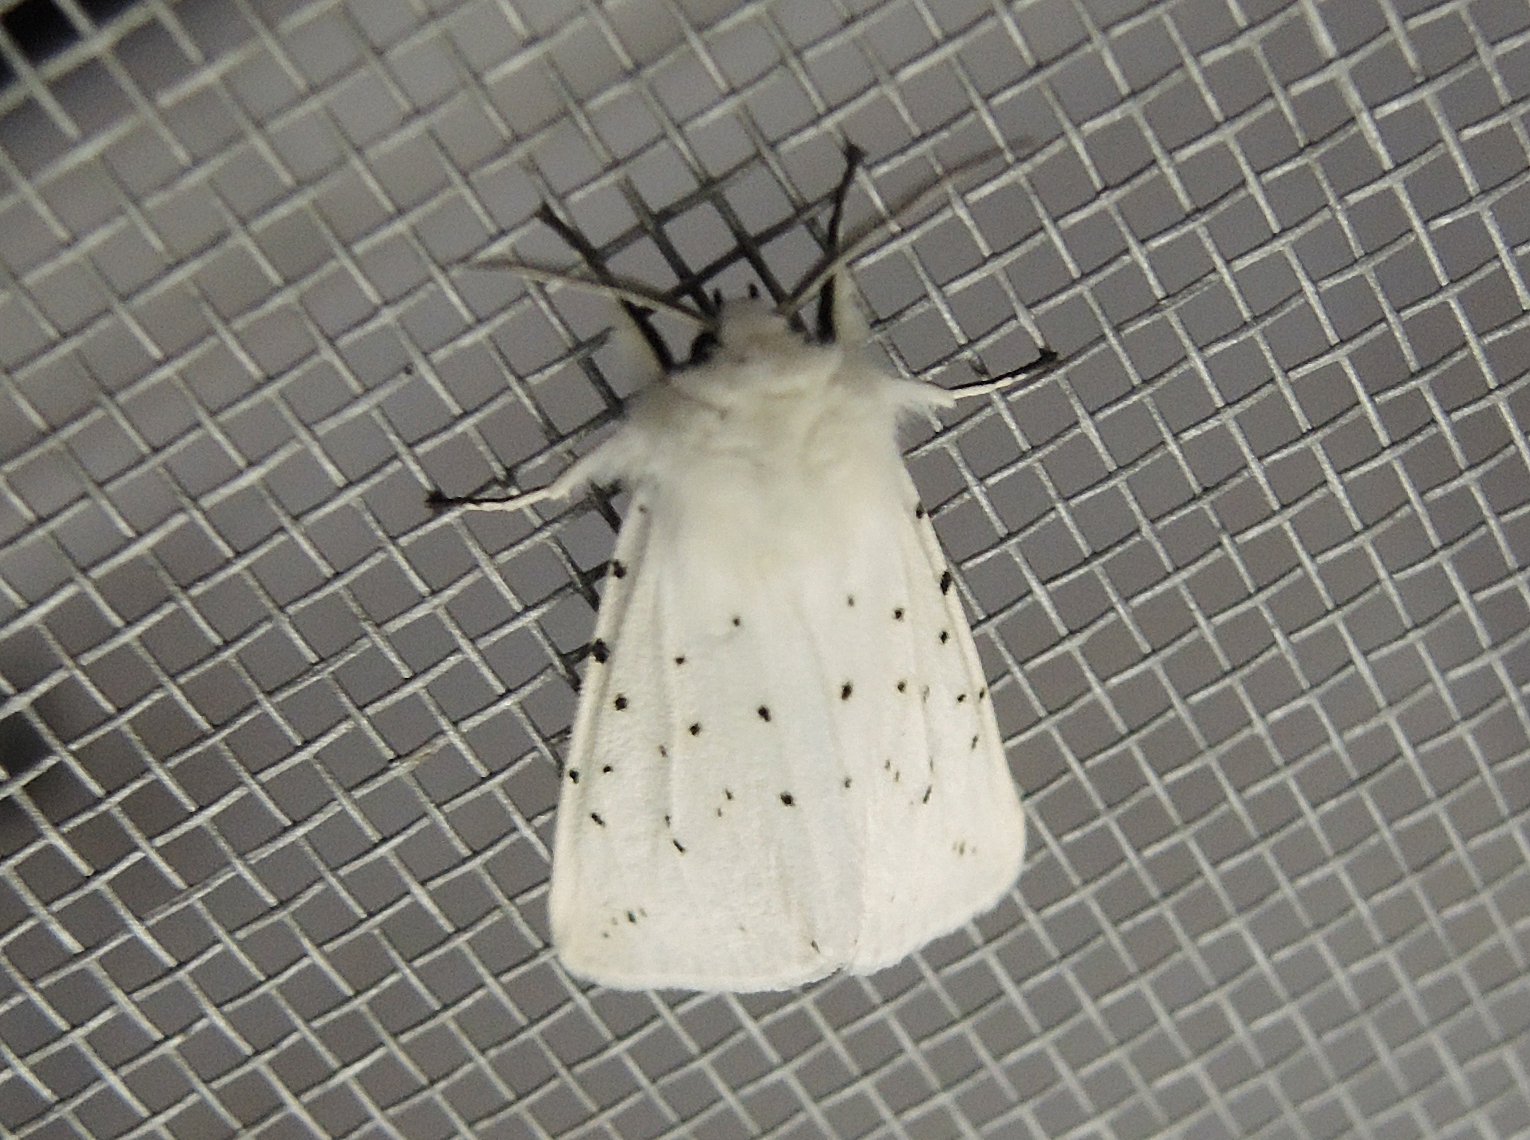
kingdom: Animalia
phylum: Arthropoda
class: Insecta
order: Lepidoptera
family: Erebidae
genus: Spilosoma
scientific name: Spilosoma lubricipeda
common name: White ermine
